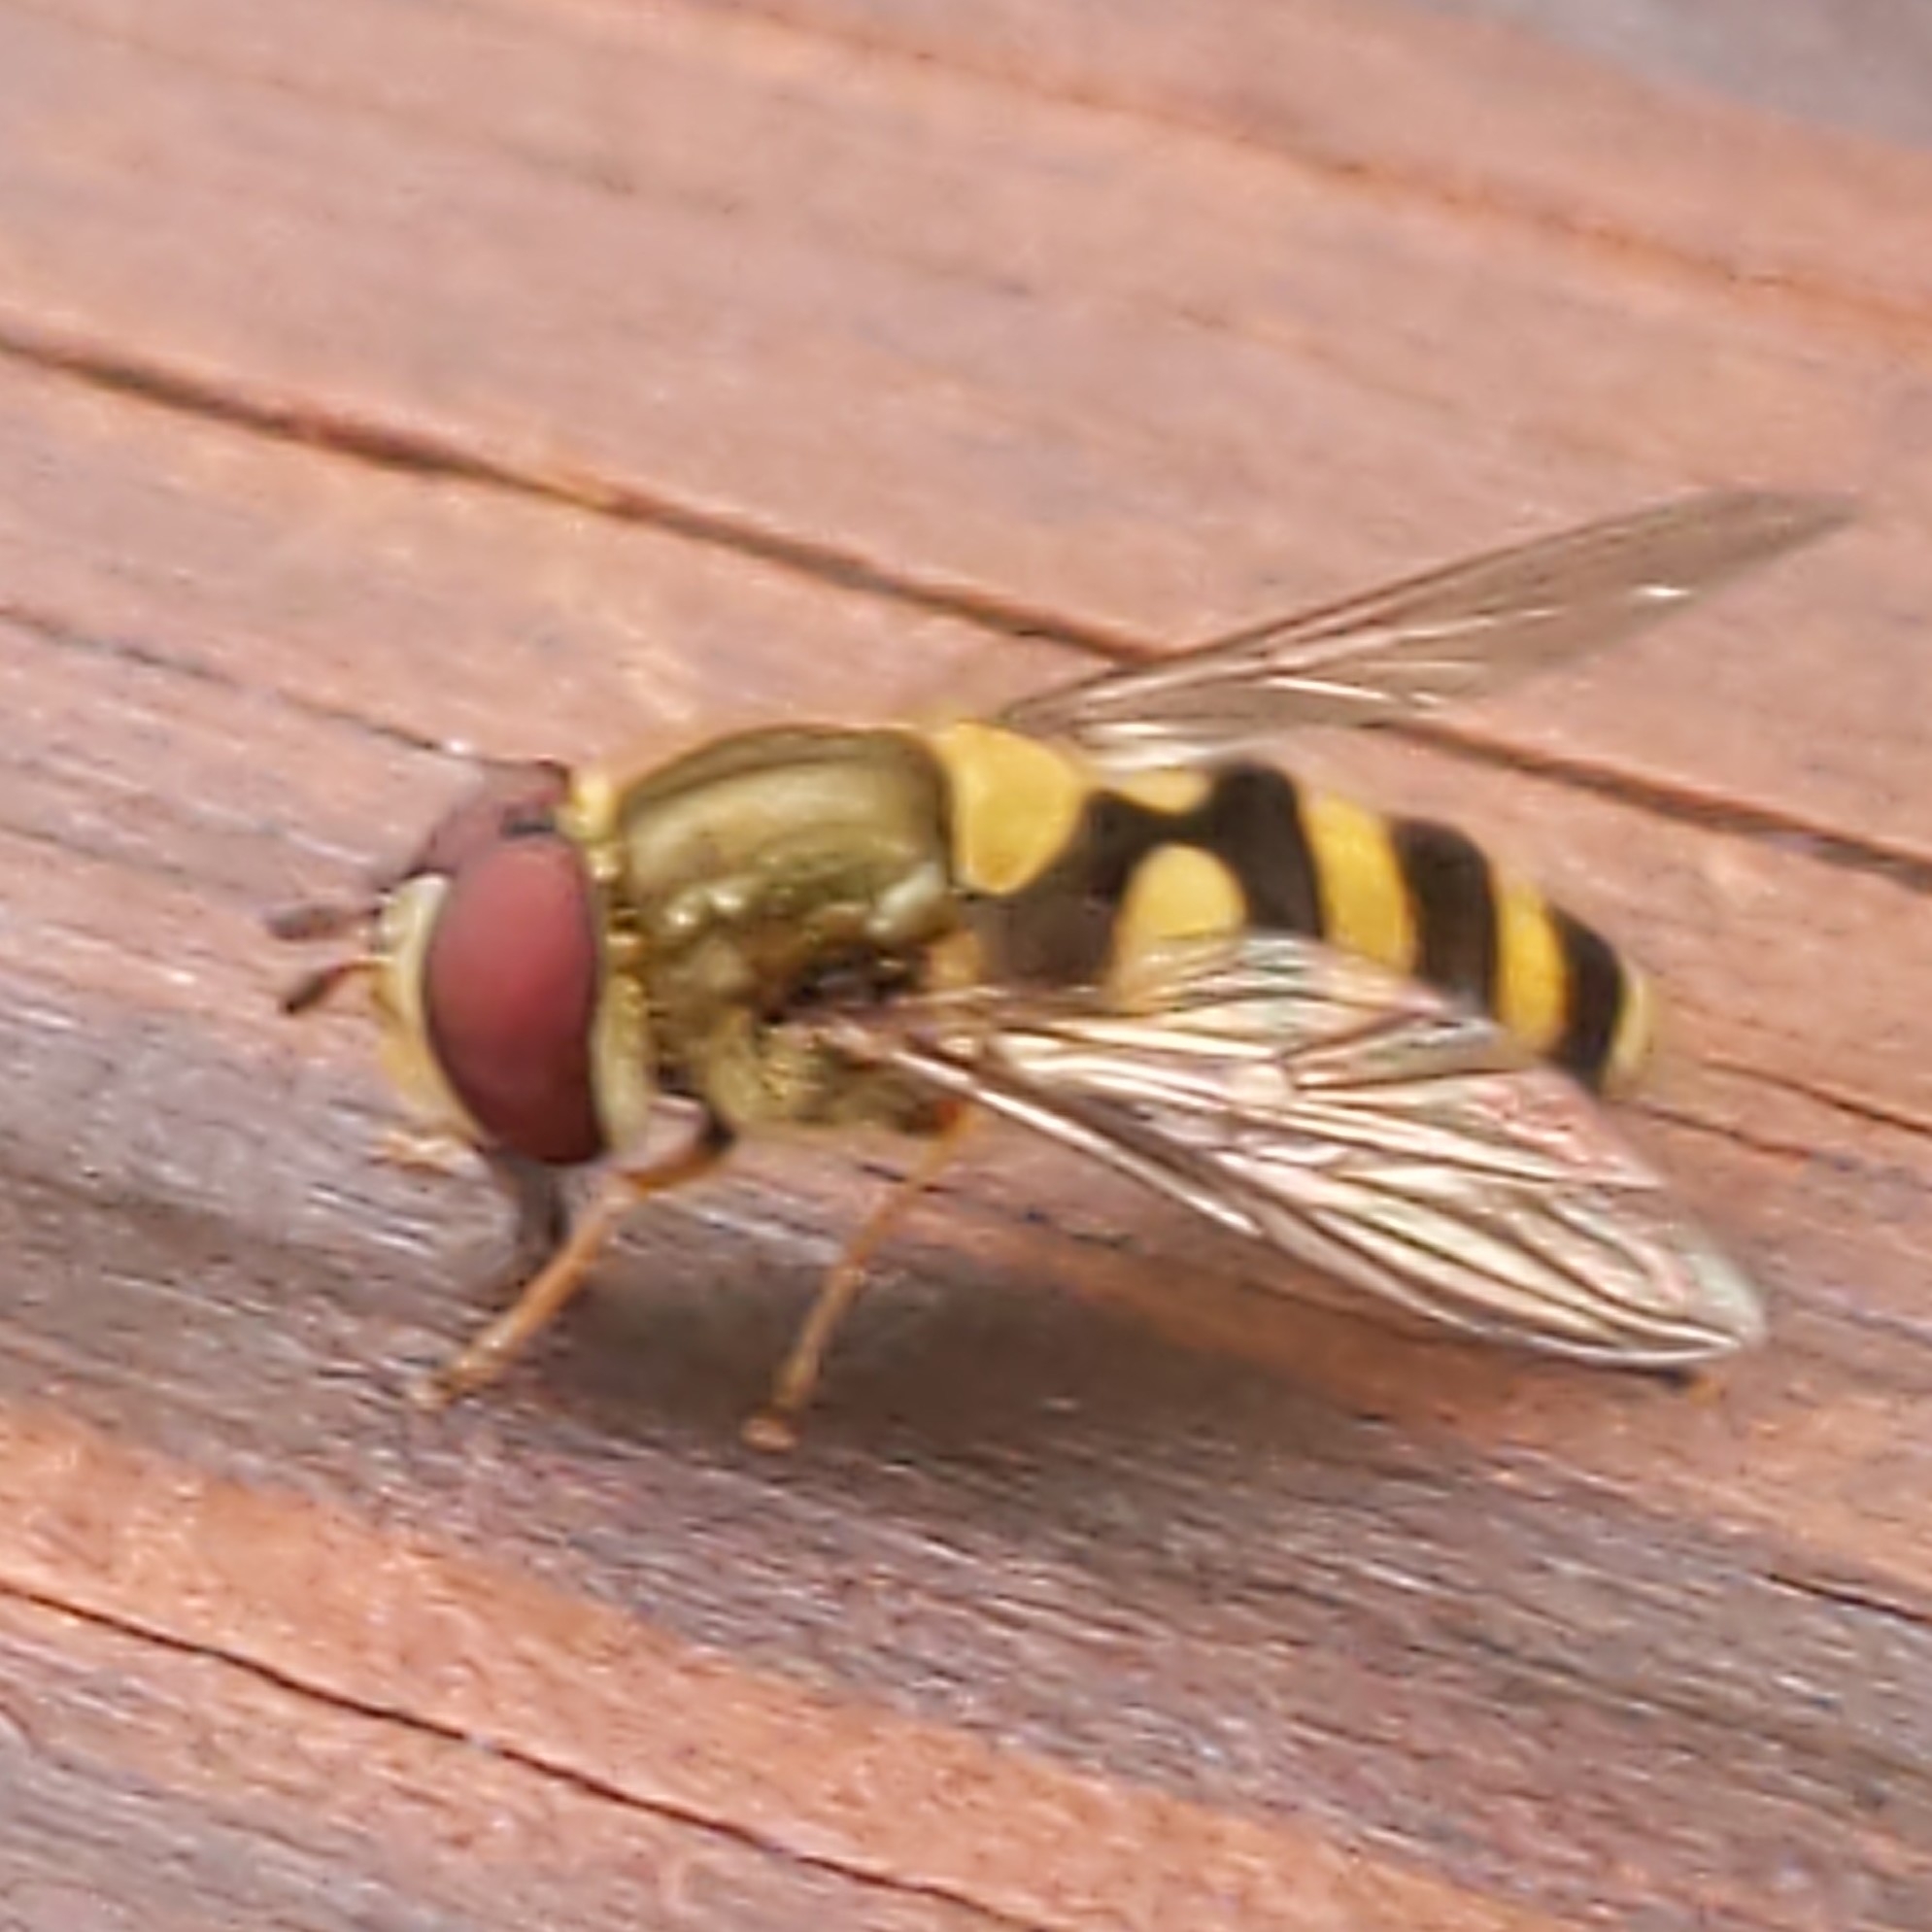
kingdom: Animalia
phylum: Arthropoda
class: Insecta
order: Diptera
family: Syrphidae
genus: Syrphus
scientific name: Syrphus
